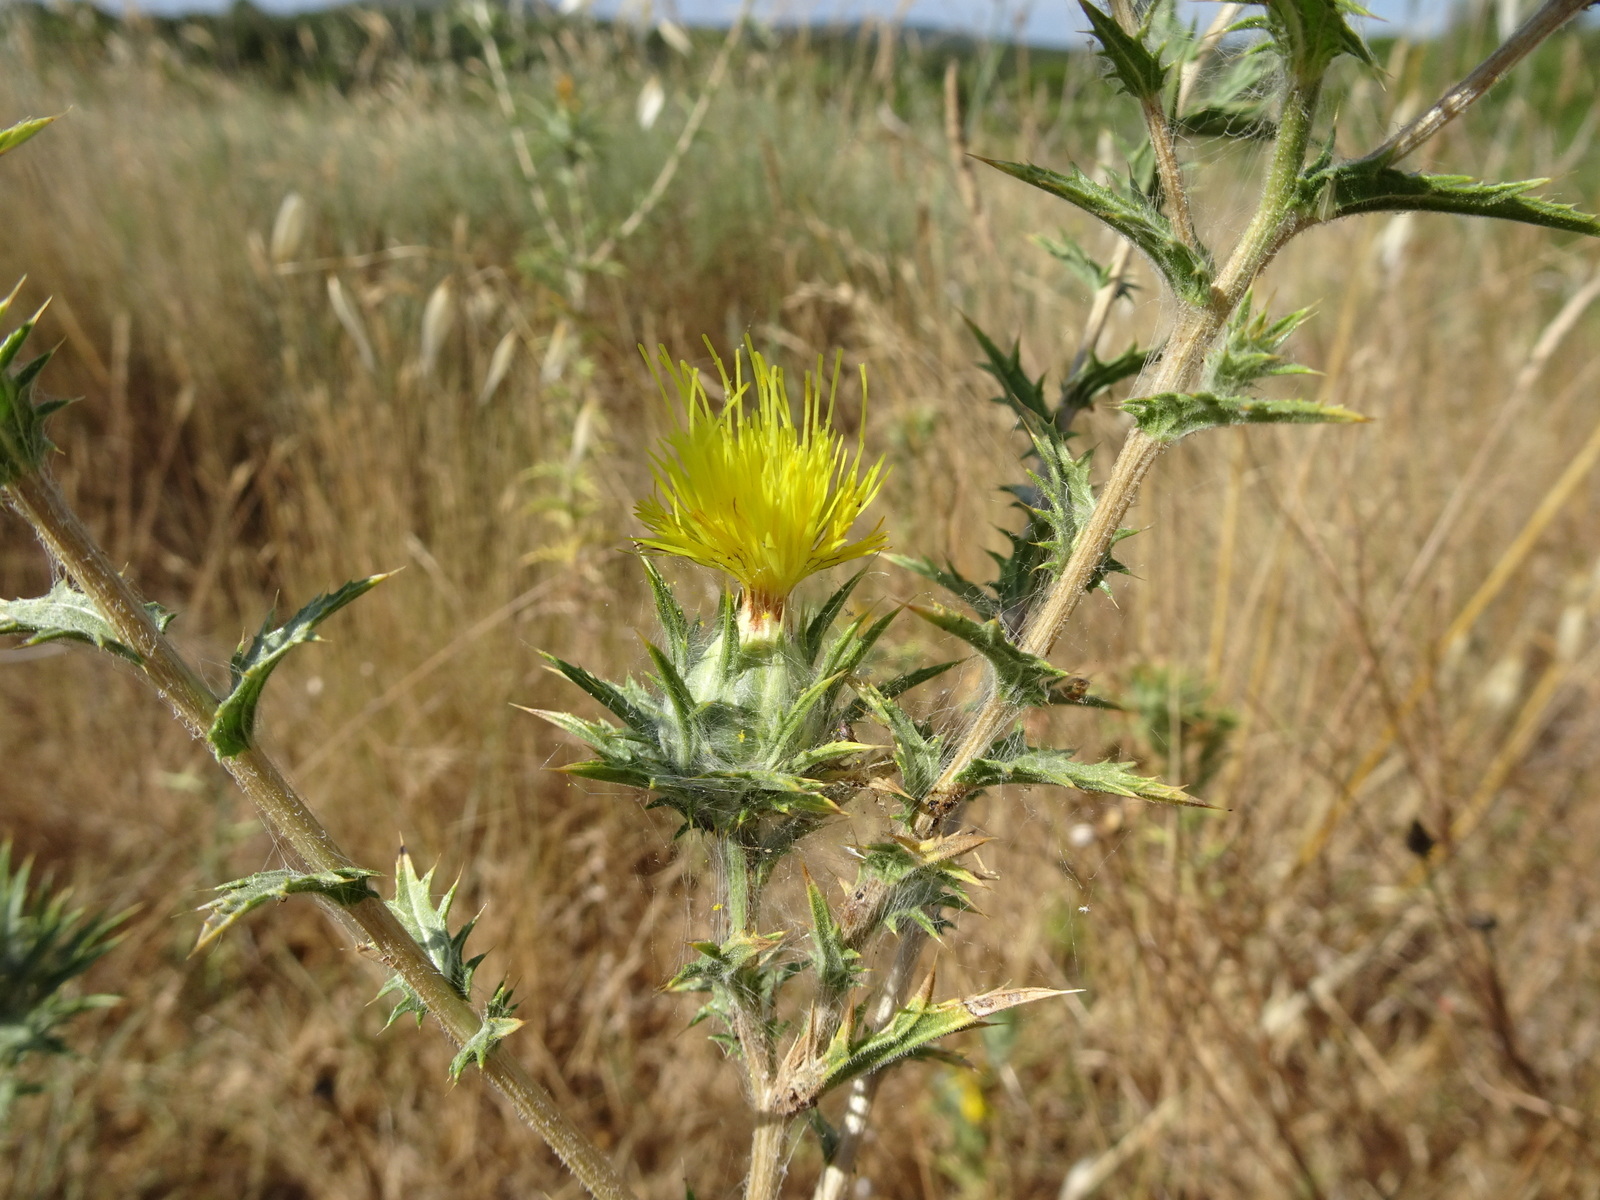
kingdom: Plantae
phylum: Tracheophyta
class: Magnoliopsida
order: Asterales
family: Asteraceae
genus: Carthamus
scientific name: Carthamus lanatus
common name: Downy safflower
